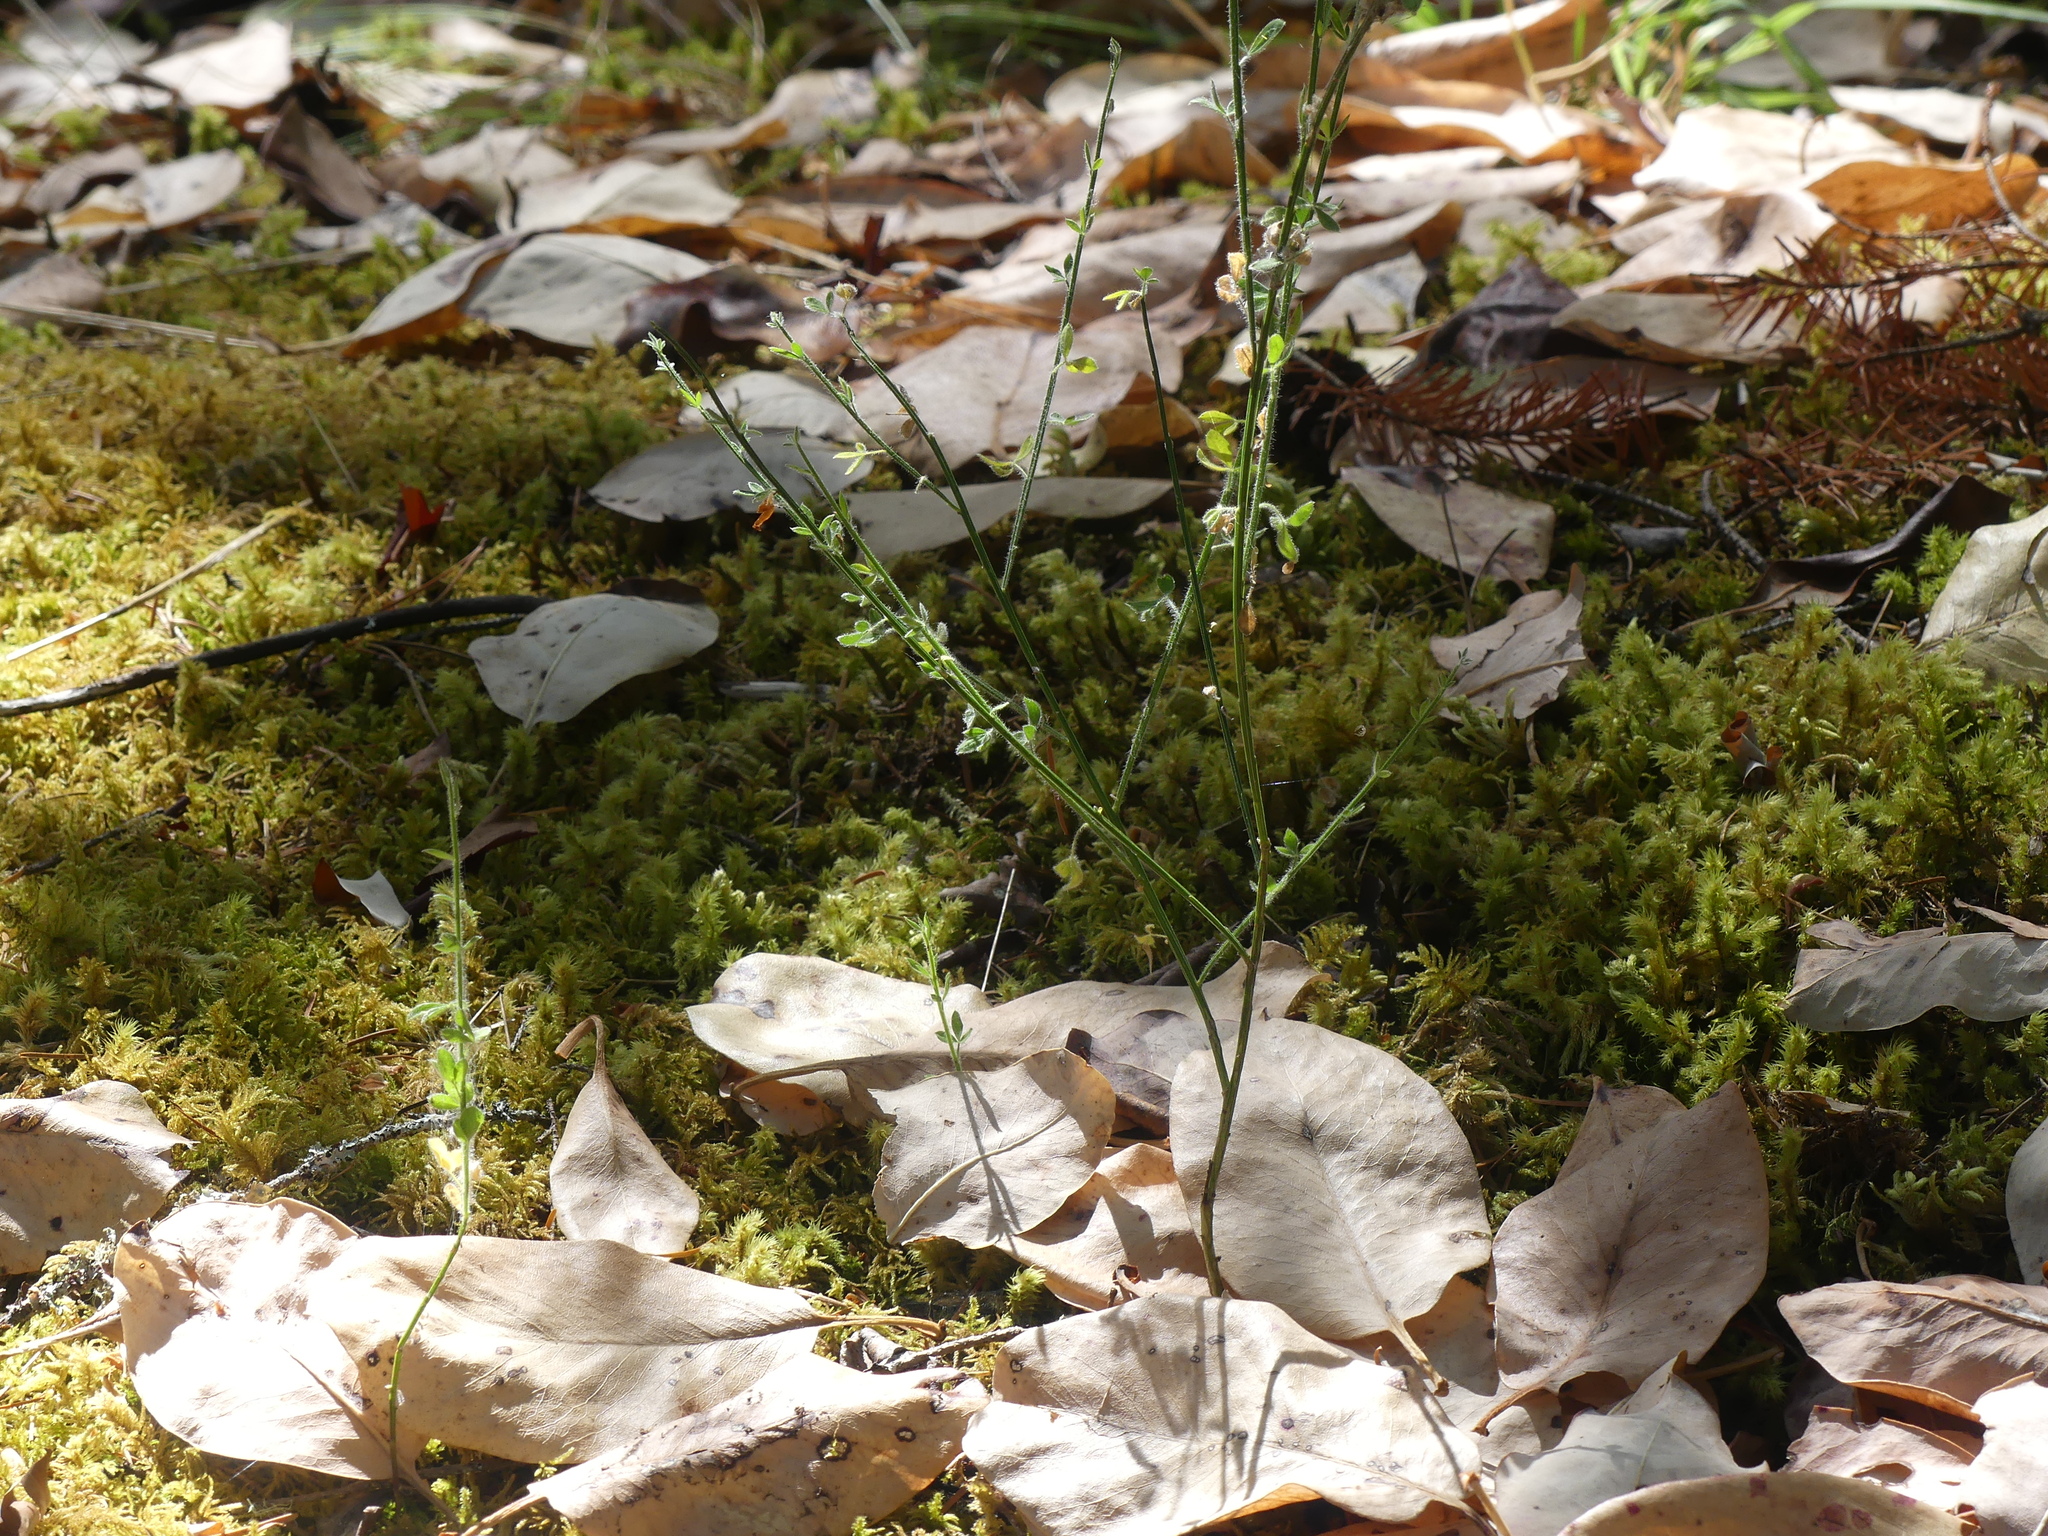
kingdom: Plantae
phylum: Tracheophyta
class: Magnoliopsida
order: Fabales
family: Fabaceae
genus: Cytisus
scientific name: Cytisus scoparius
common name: Scotch broom
